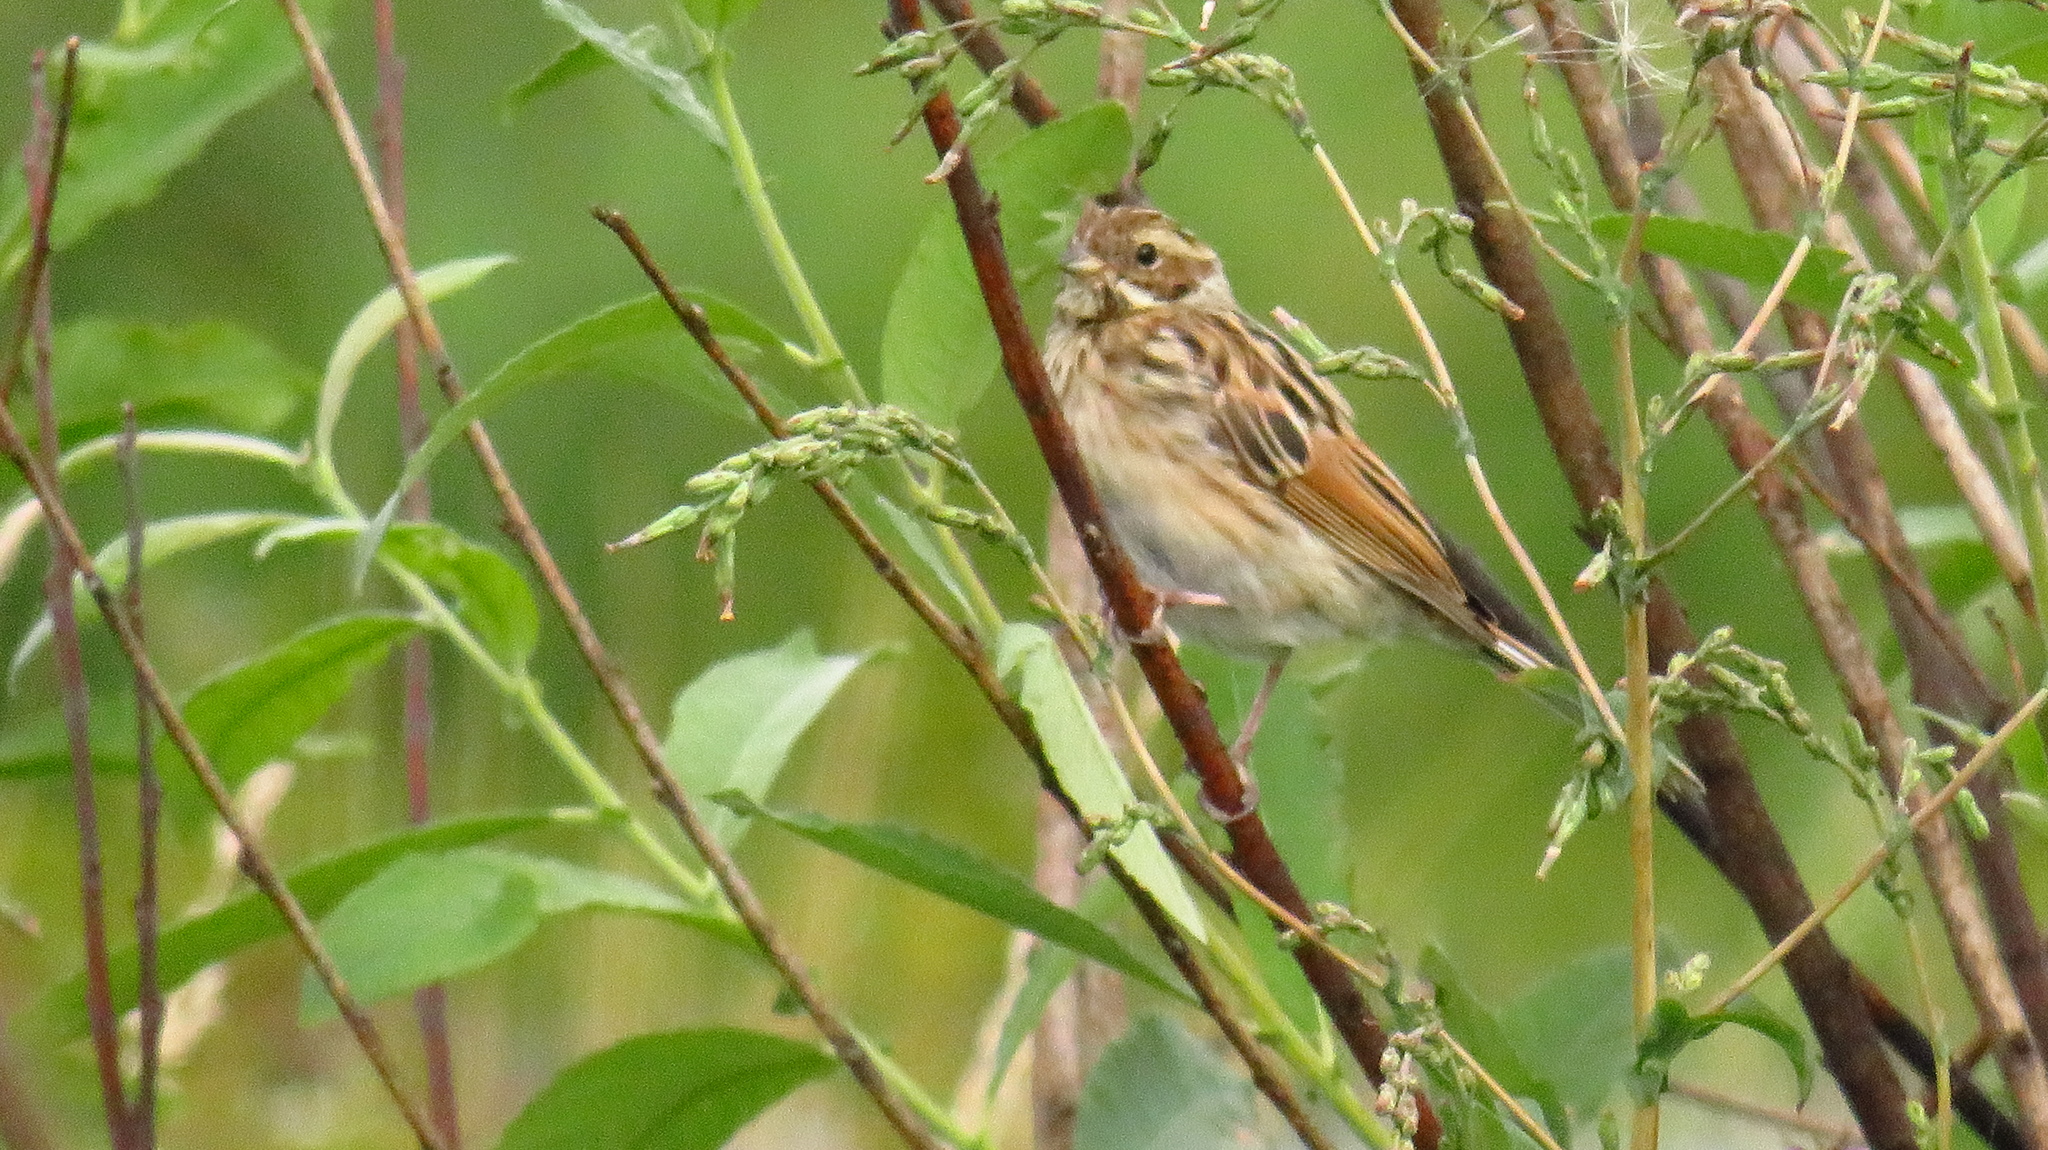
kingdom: Animalia
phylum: Chordata
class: Aves
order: Passeriformes
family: Emberizidae
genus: Emberiza
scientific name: Emberiza schoeniclus
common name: Reed bunting
